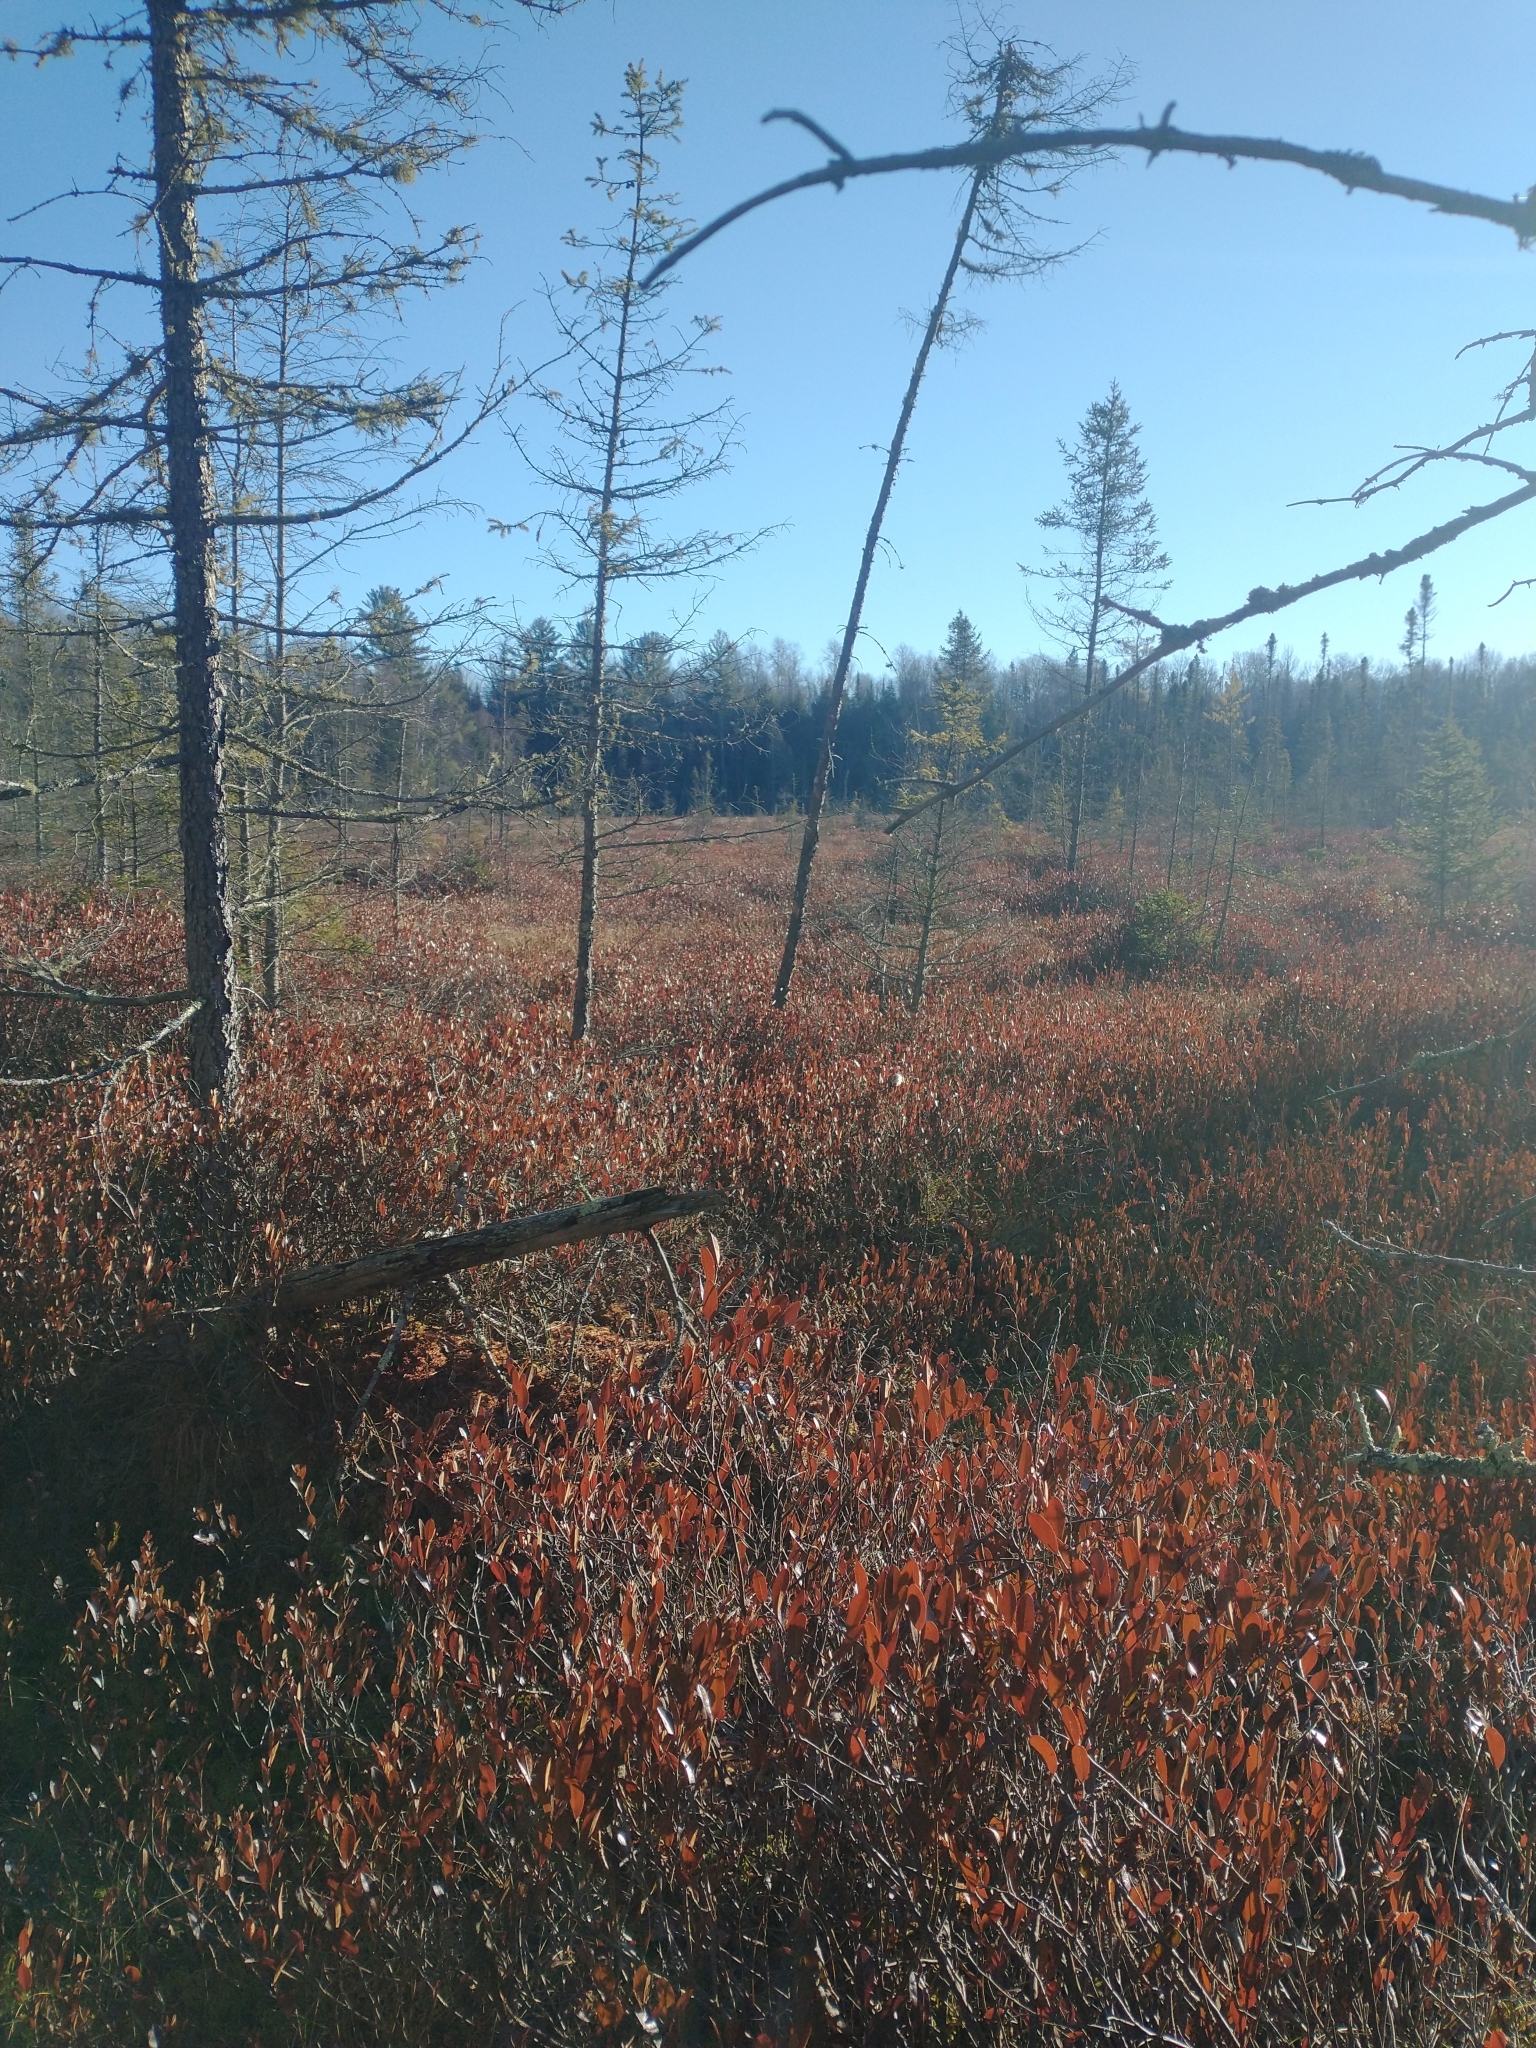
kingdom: Plantae
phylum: Tracheophyta
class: Magnoliopsida
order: Ericales
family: Ericaceae
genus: Chamaedaphne
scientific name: Chamaedaphne calyculata
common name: Leatherleaf
